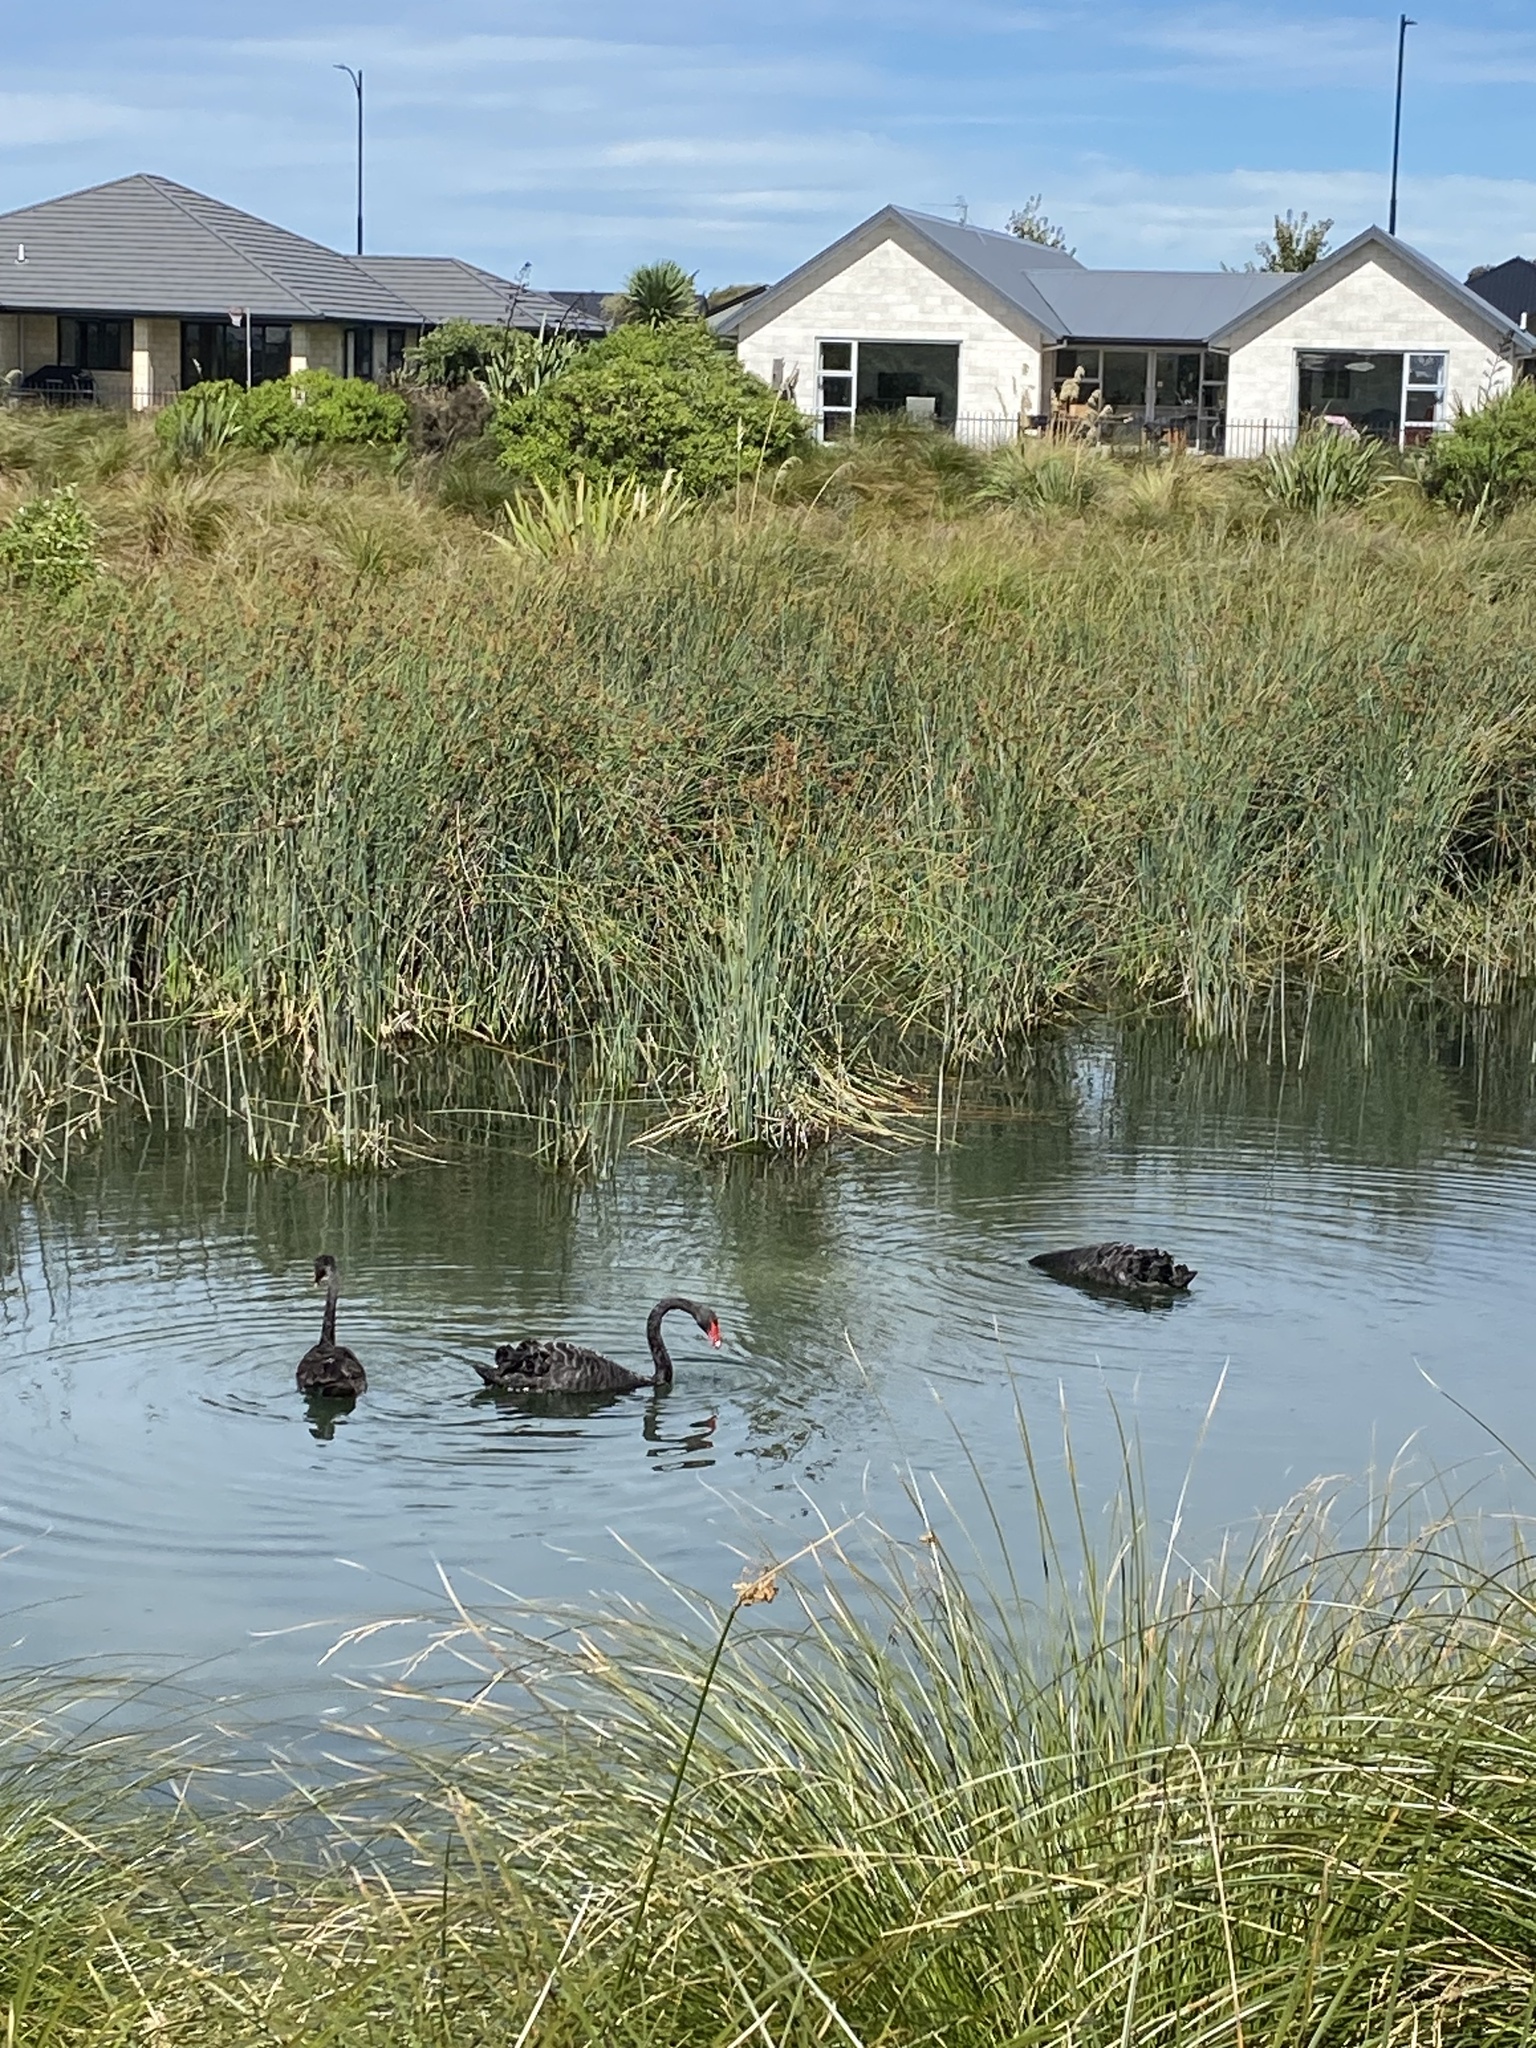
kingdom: Animalia
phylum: Chordata
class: Aves
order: Anseriformes
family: Anatidae
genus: Cygnus
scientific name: Cygnus atratus
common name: Black swan
